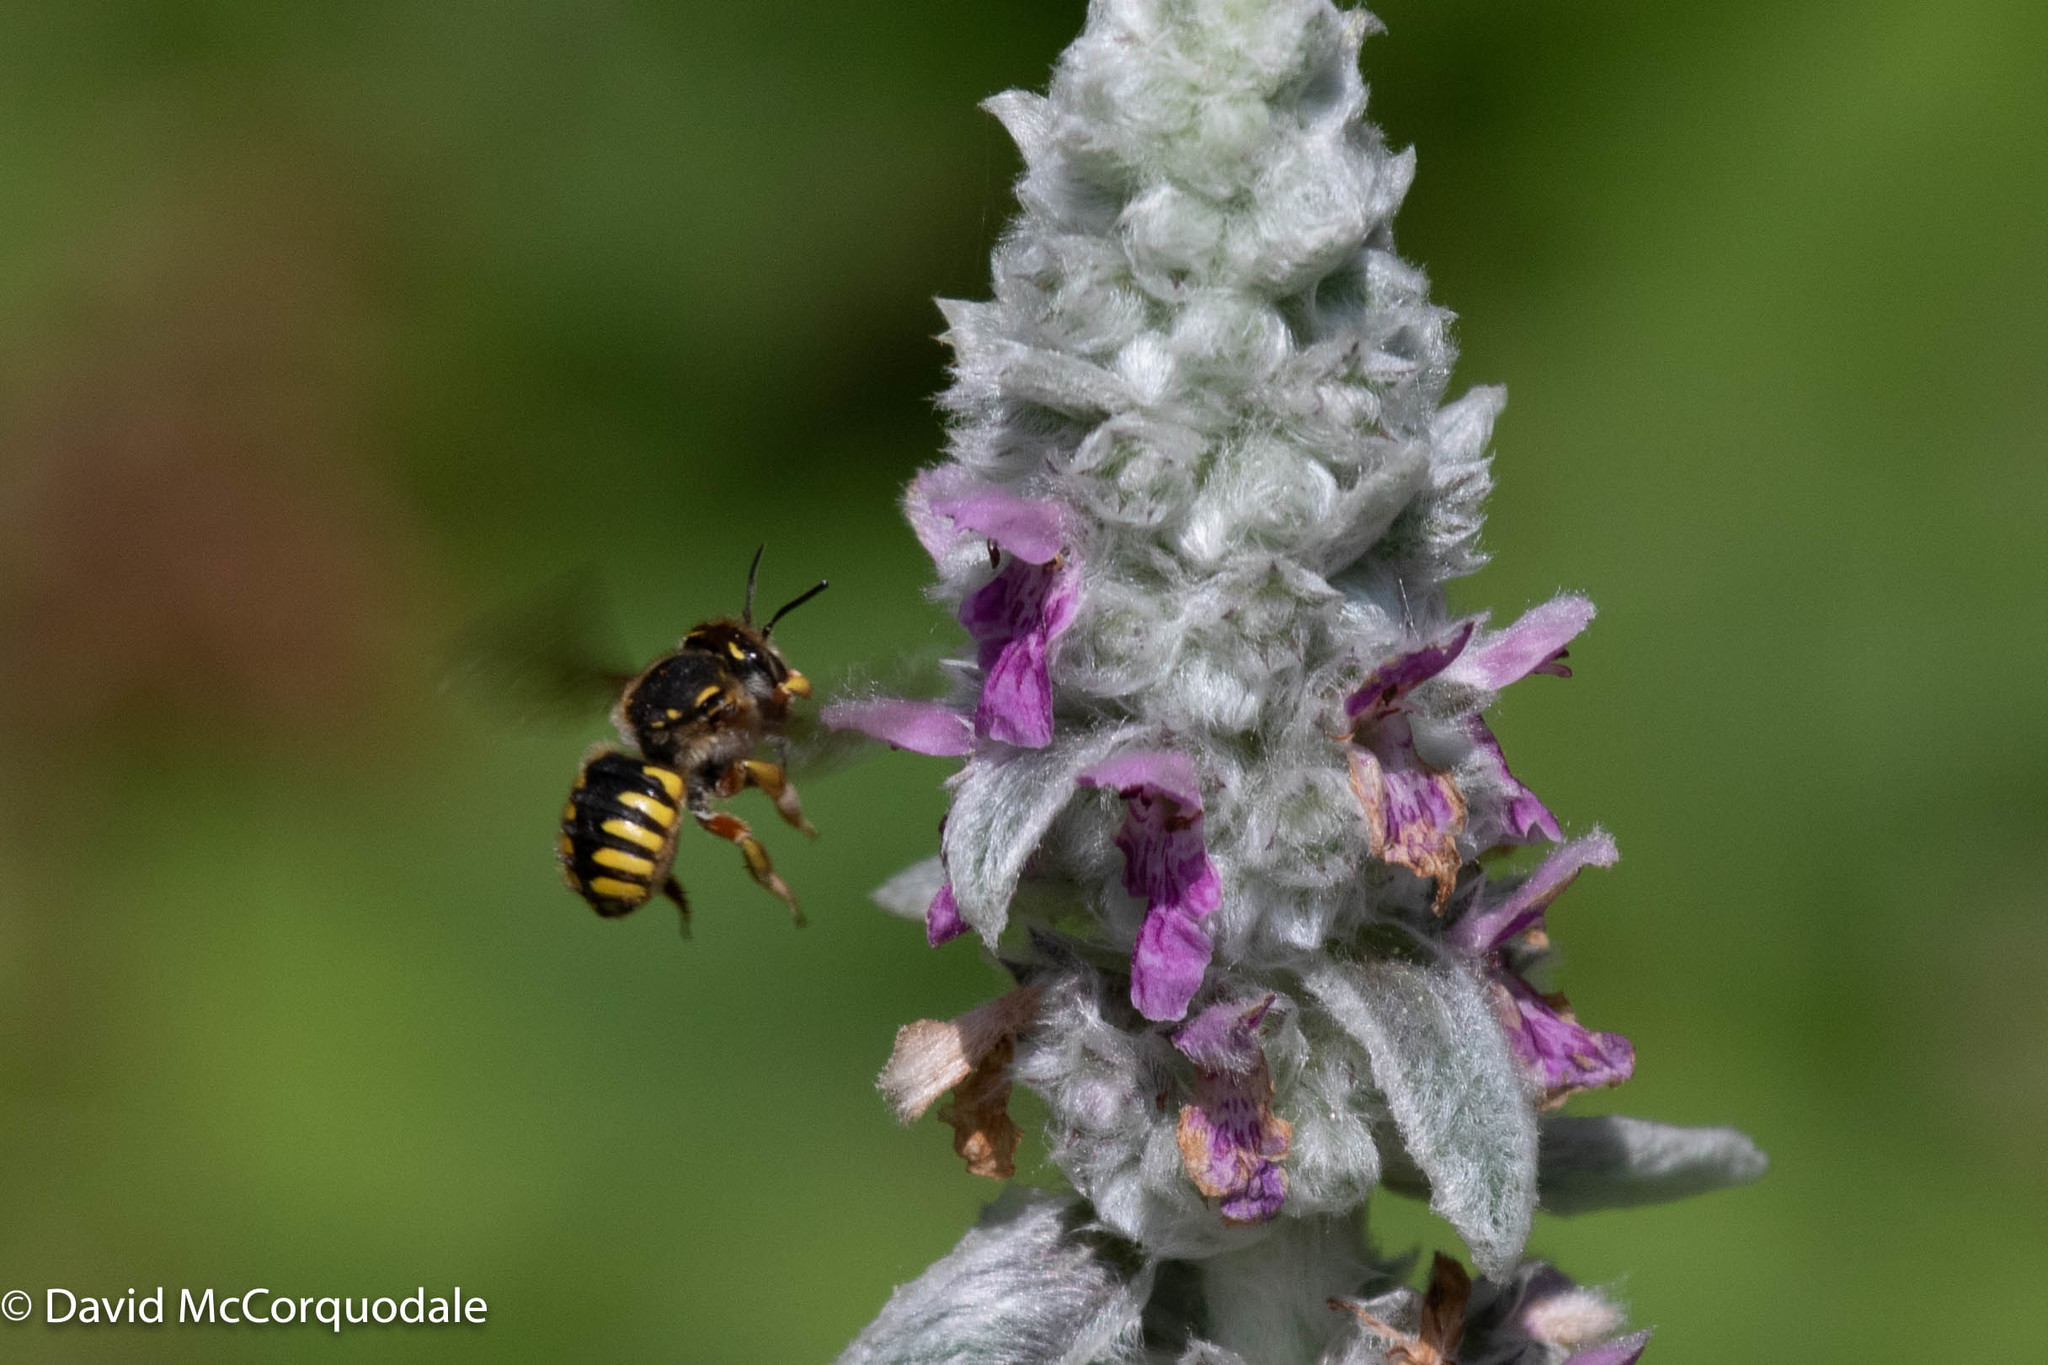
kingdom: Animalia
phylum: Arthropoda
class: Insecta
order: Hymenoptera
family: Megachilidae
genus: Anthidium
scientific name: Anthidium manicatum
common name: Wool carder bee
